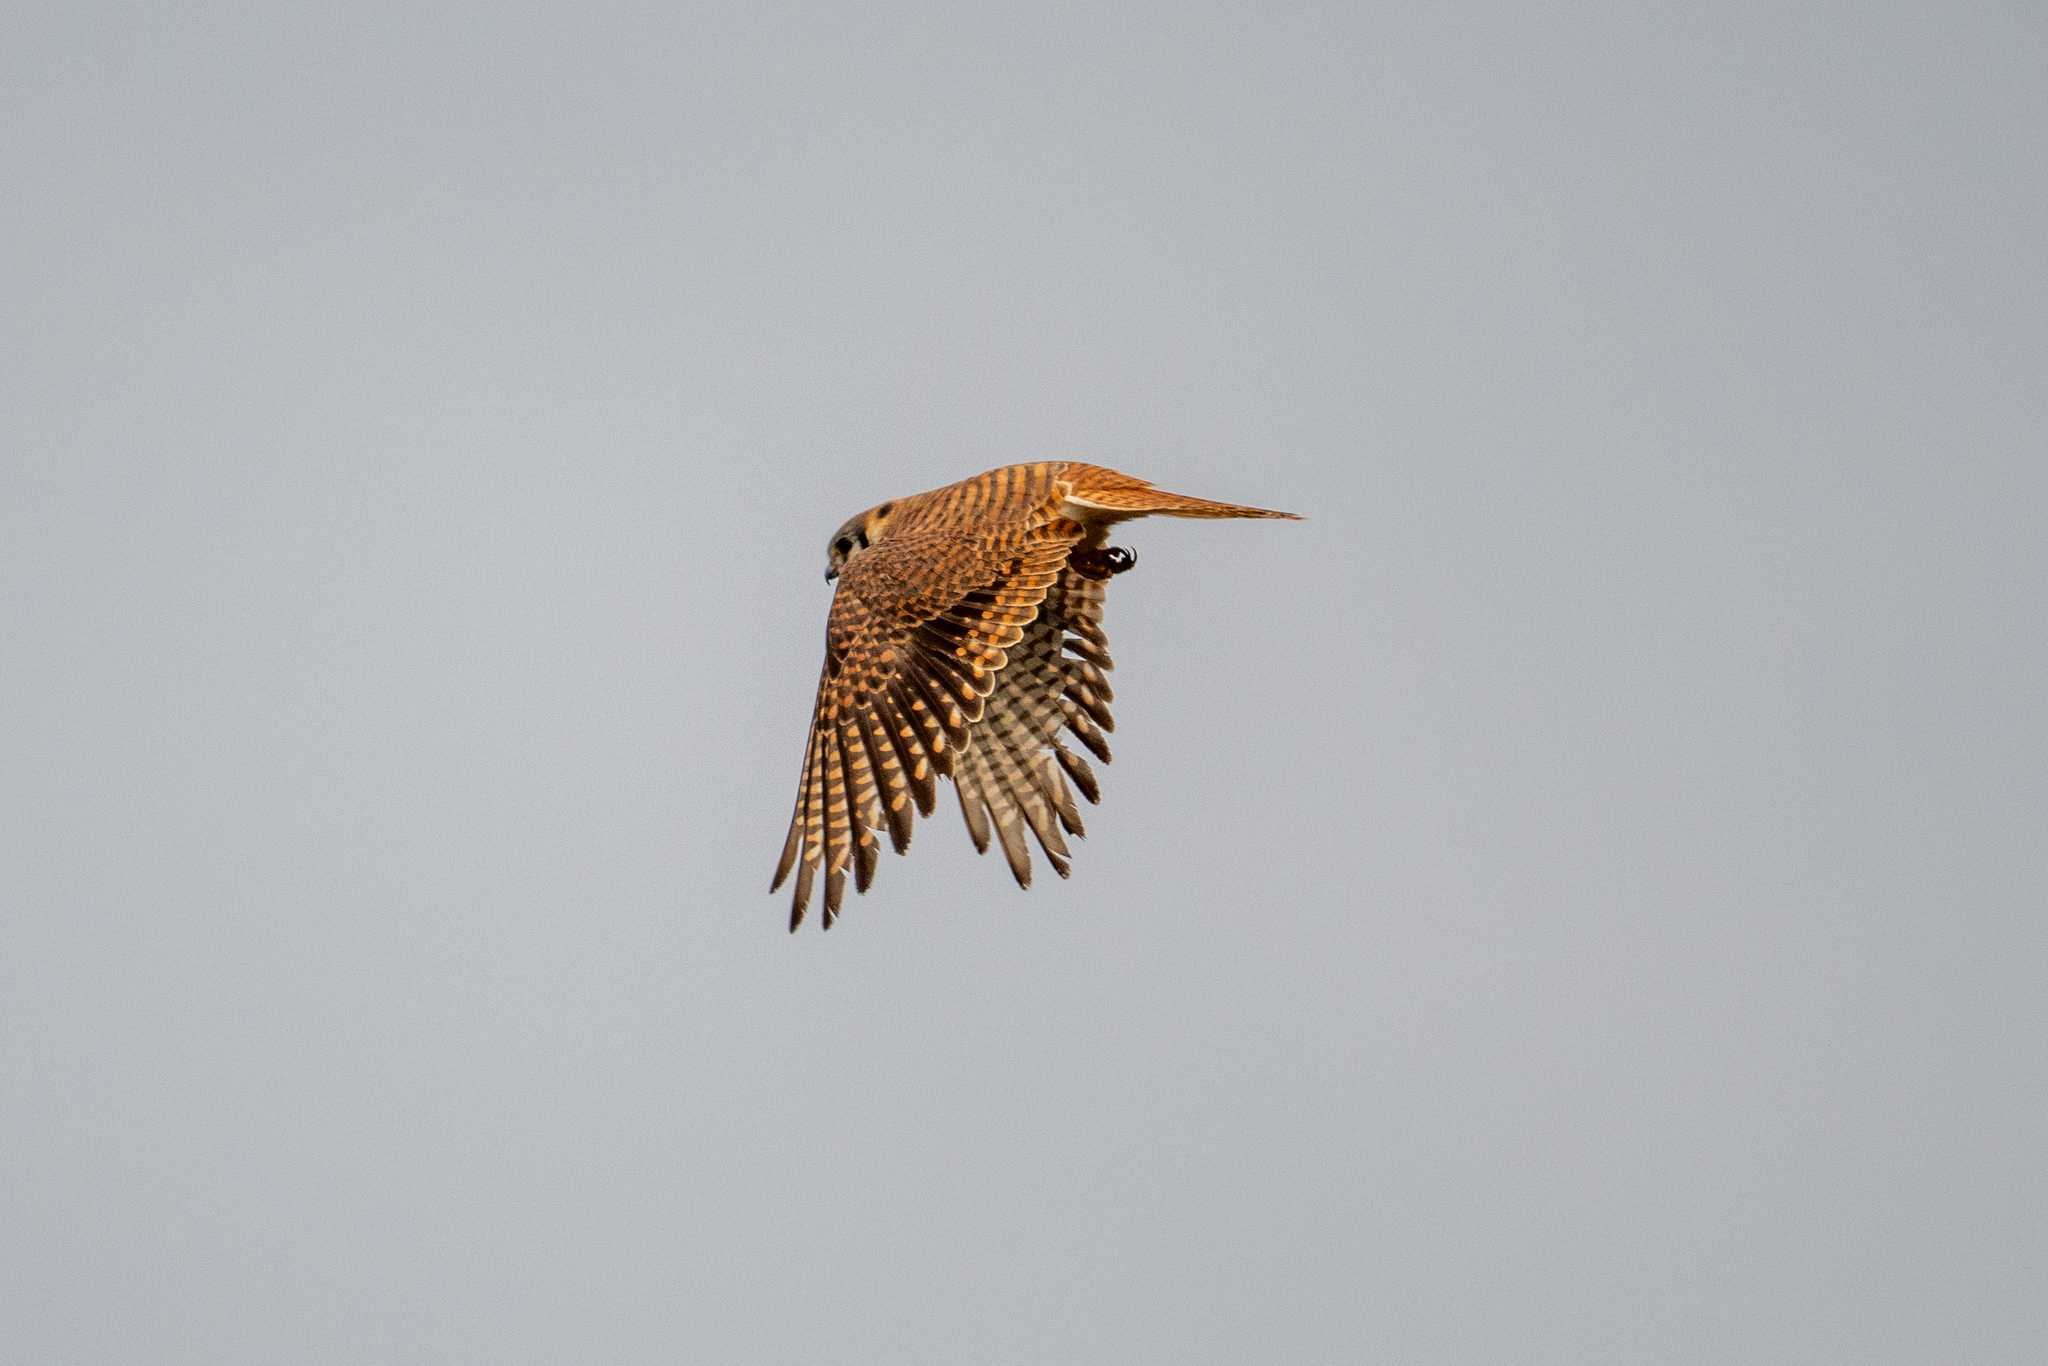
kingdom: Animalia
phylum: Chordata
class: Aves
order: Falconiformes
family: Falconidae
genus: Falco
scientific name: Falco sparverius
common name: American kestrel
